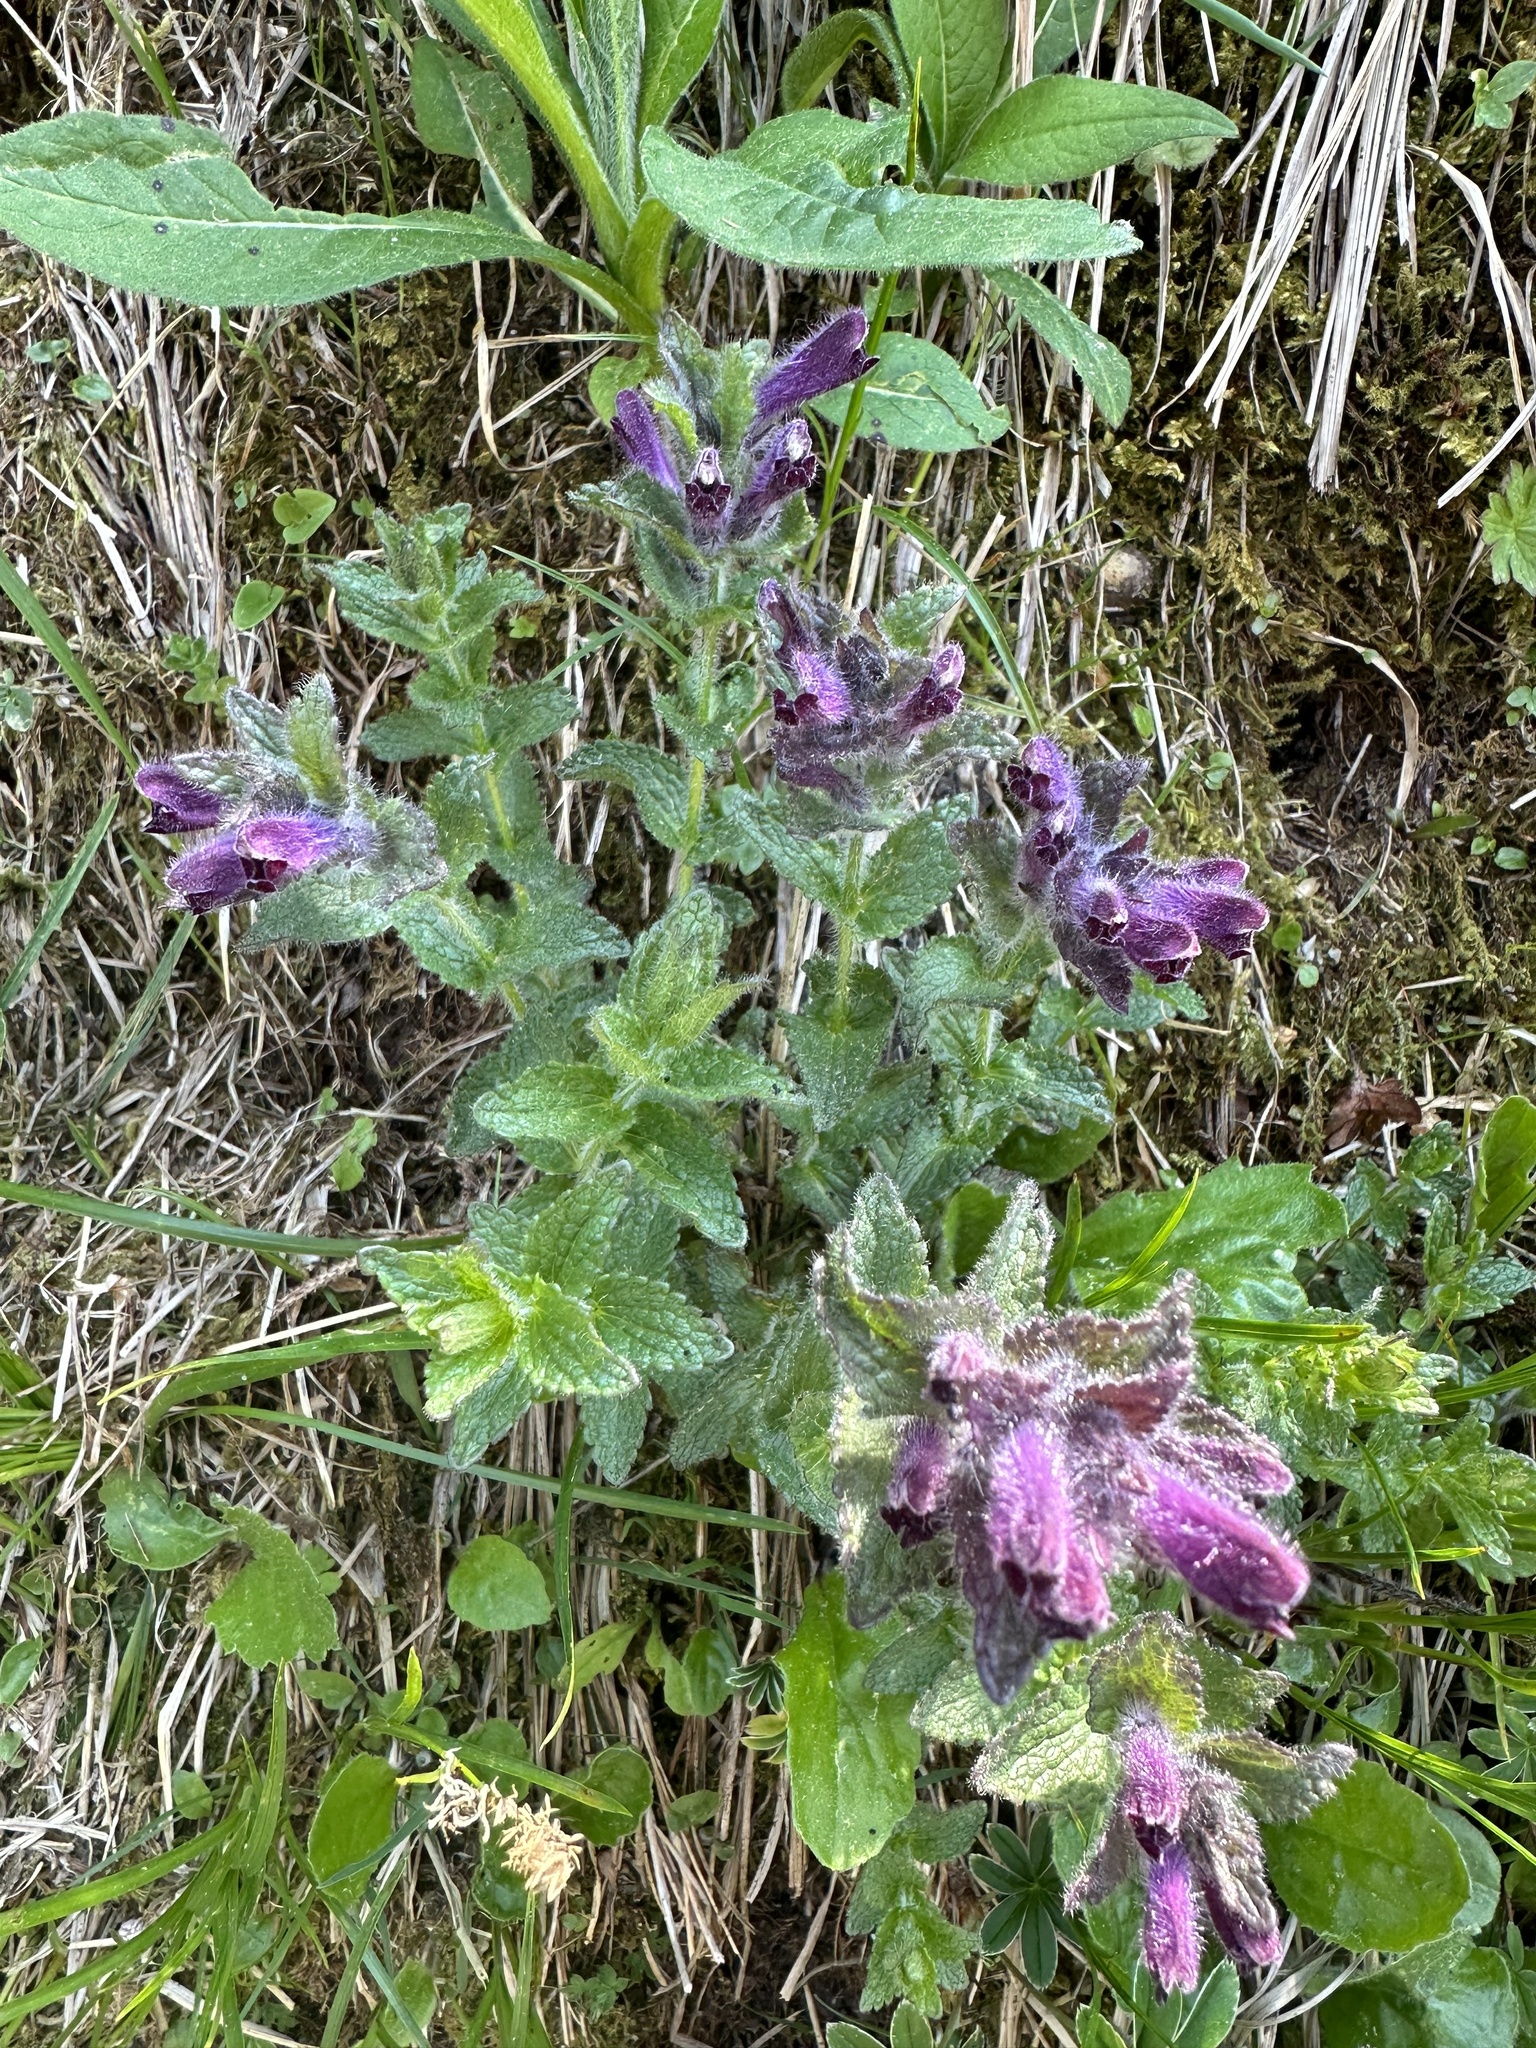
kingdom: Plantae
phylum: Tracheophyta
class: Magnoliopsida
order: Lamiales
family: Orobanchaceae
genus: Bartsia
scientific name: Bartsia alpina
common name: Alpine bartsia
